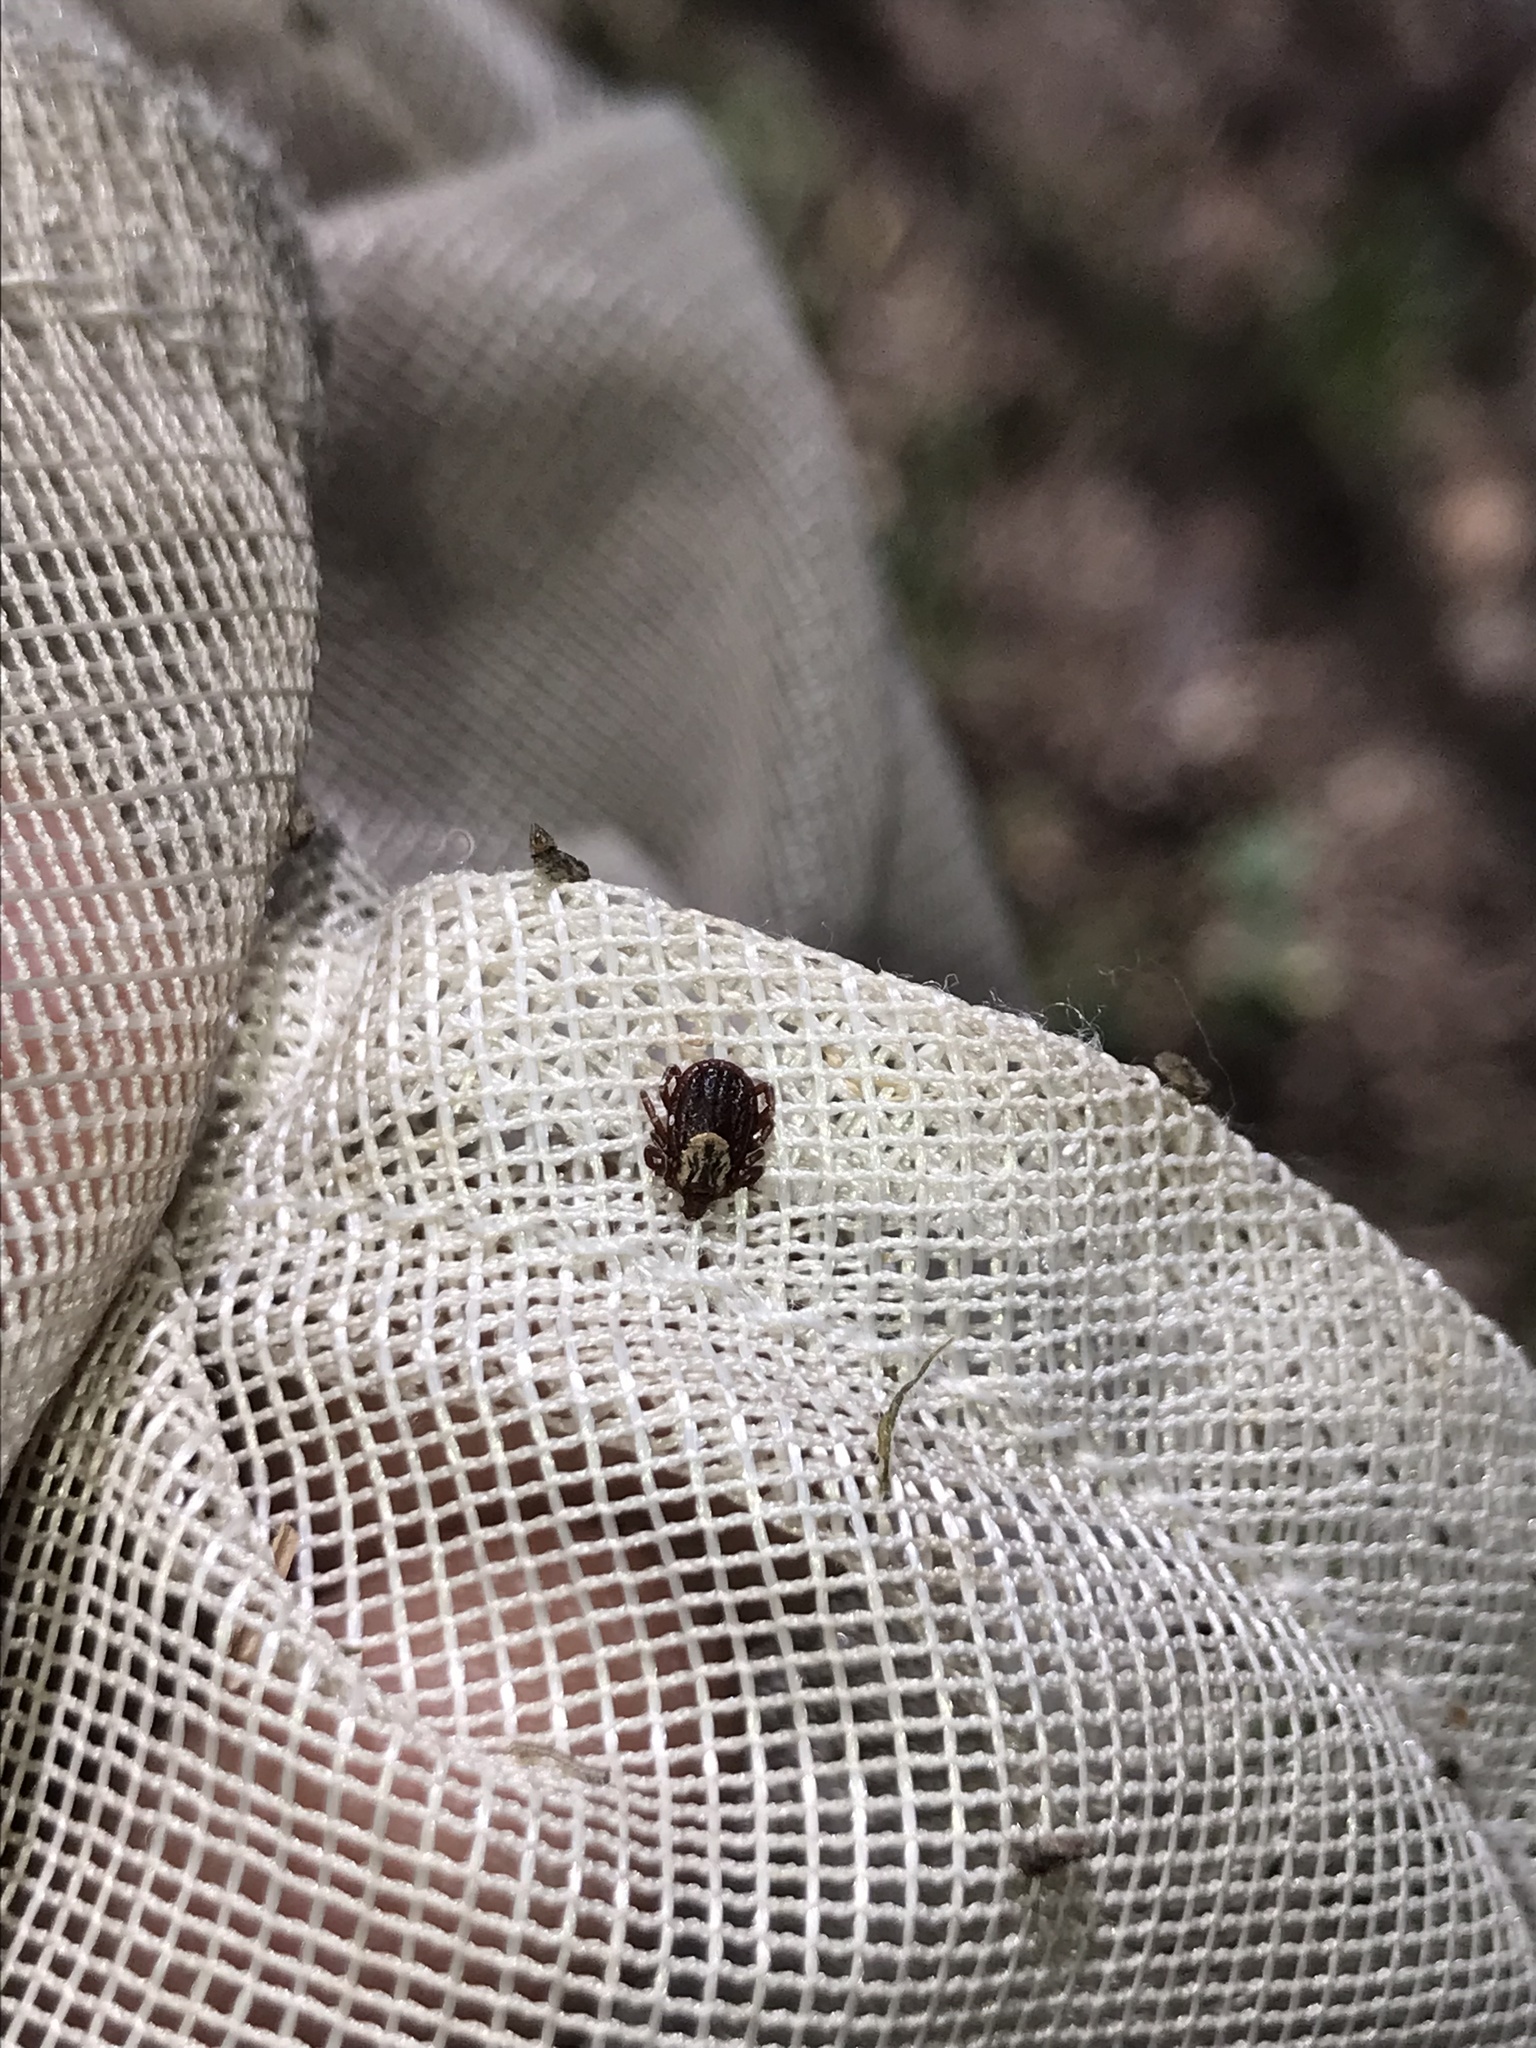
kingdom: Animalia
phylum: Arthropoda
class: Arachnida
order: Ixodida
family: Ixodidae
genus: Dermacentor
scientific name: Dermacentor variabilis
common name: American dog tick
